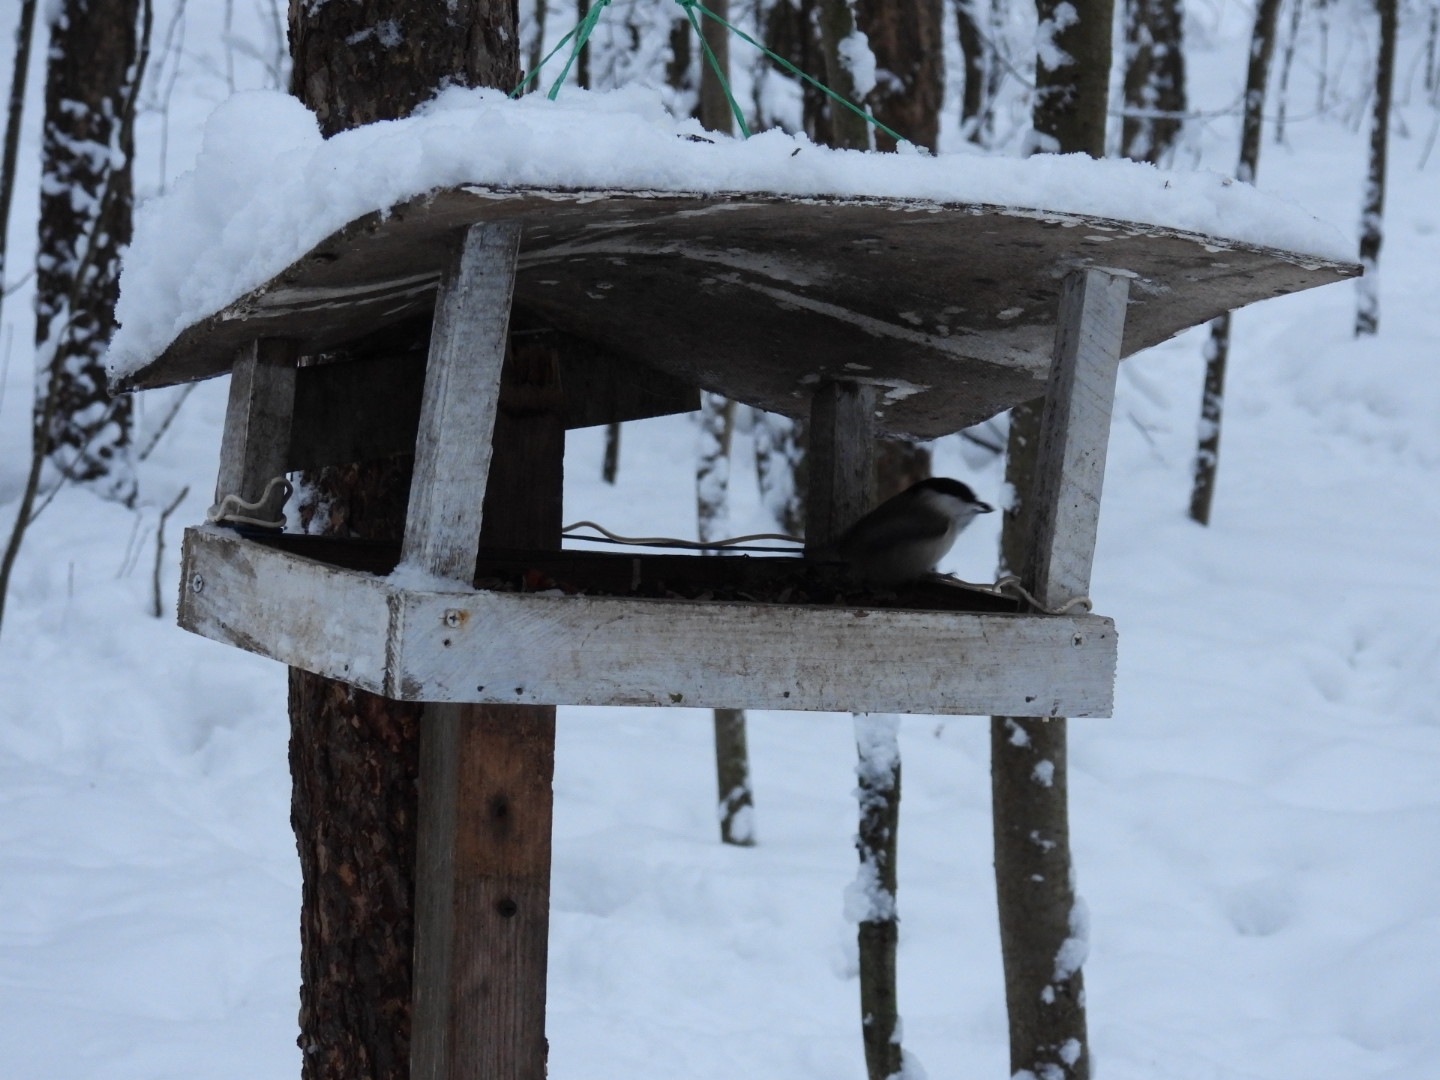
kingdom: Animalia
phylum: Chordata
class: Aves
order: Passeriformes
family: Paridae
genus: Poecile
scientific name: Poecile montanus
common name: Willow tit
